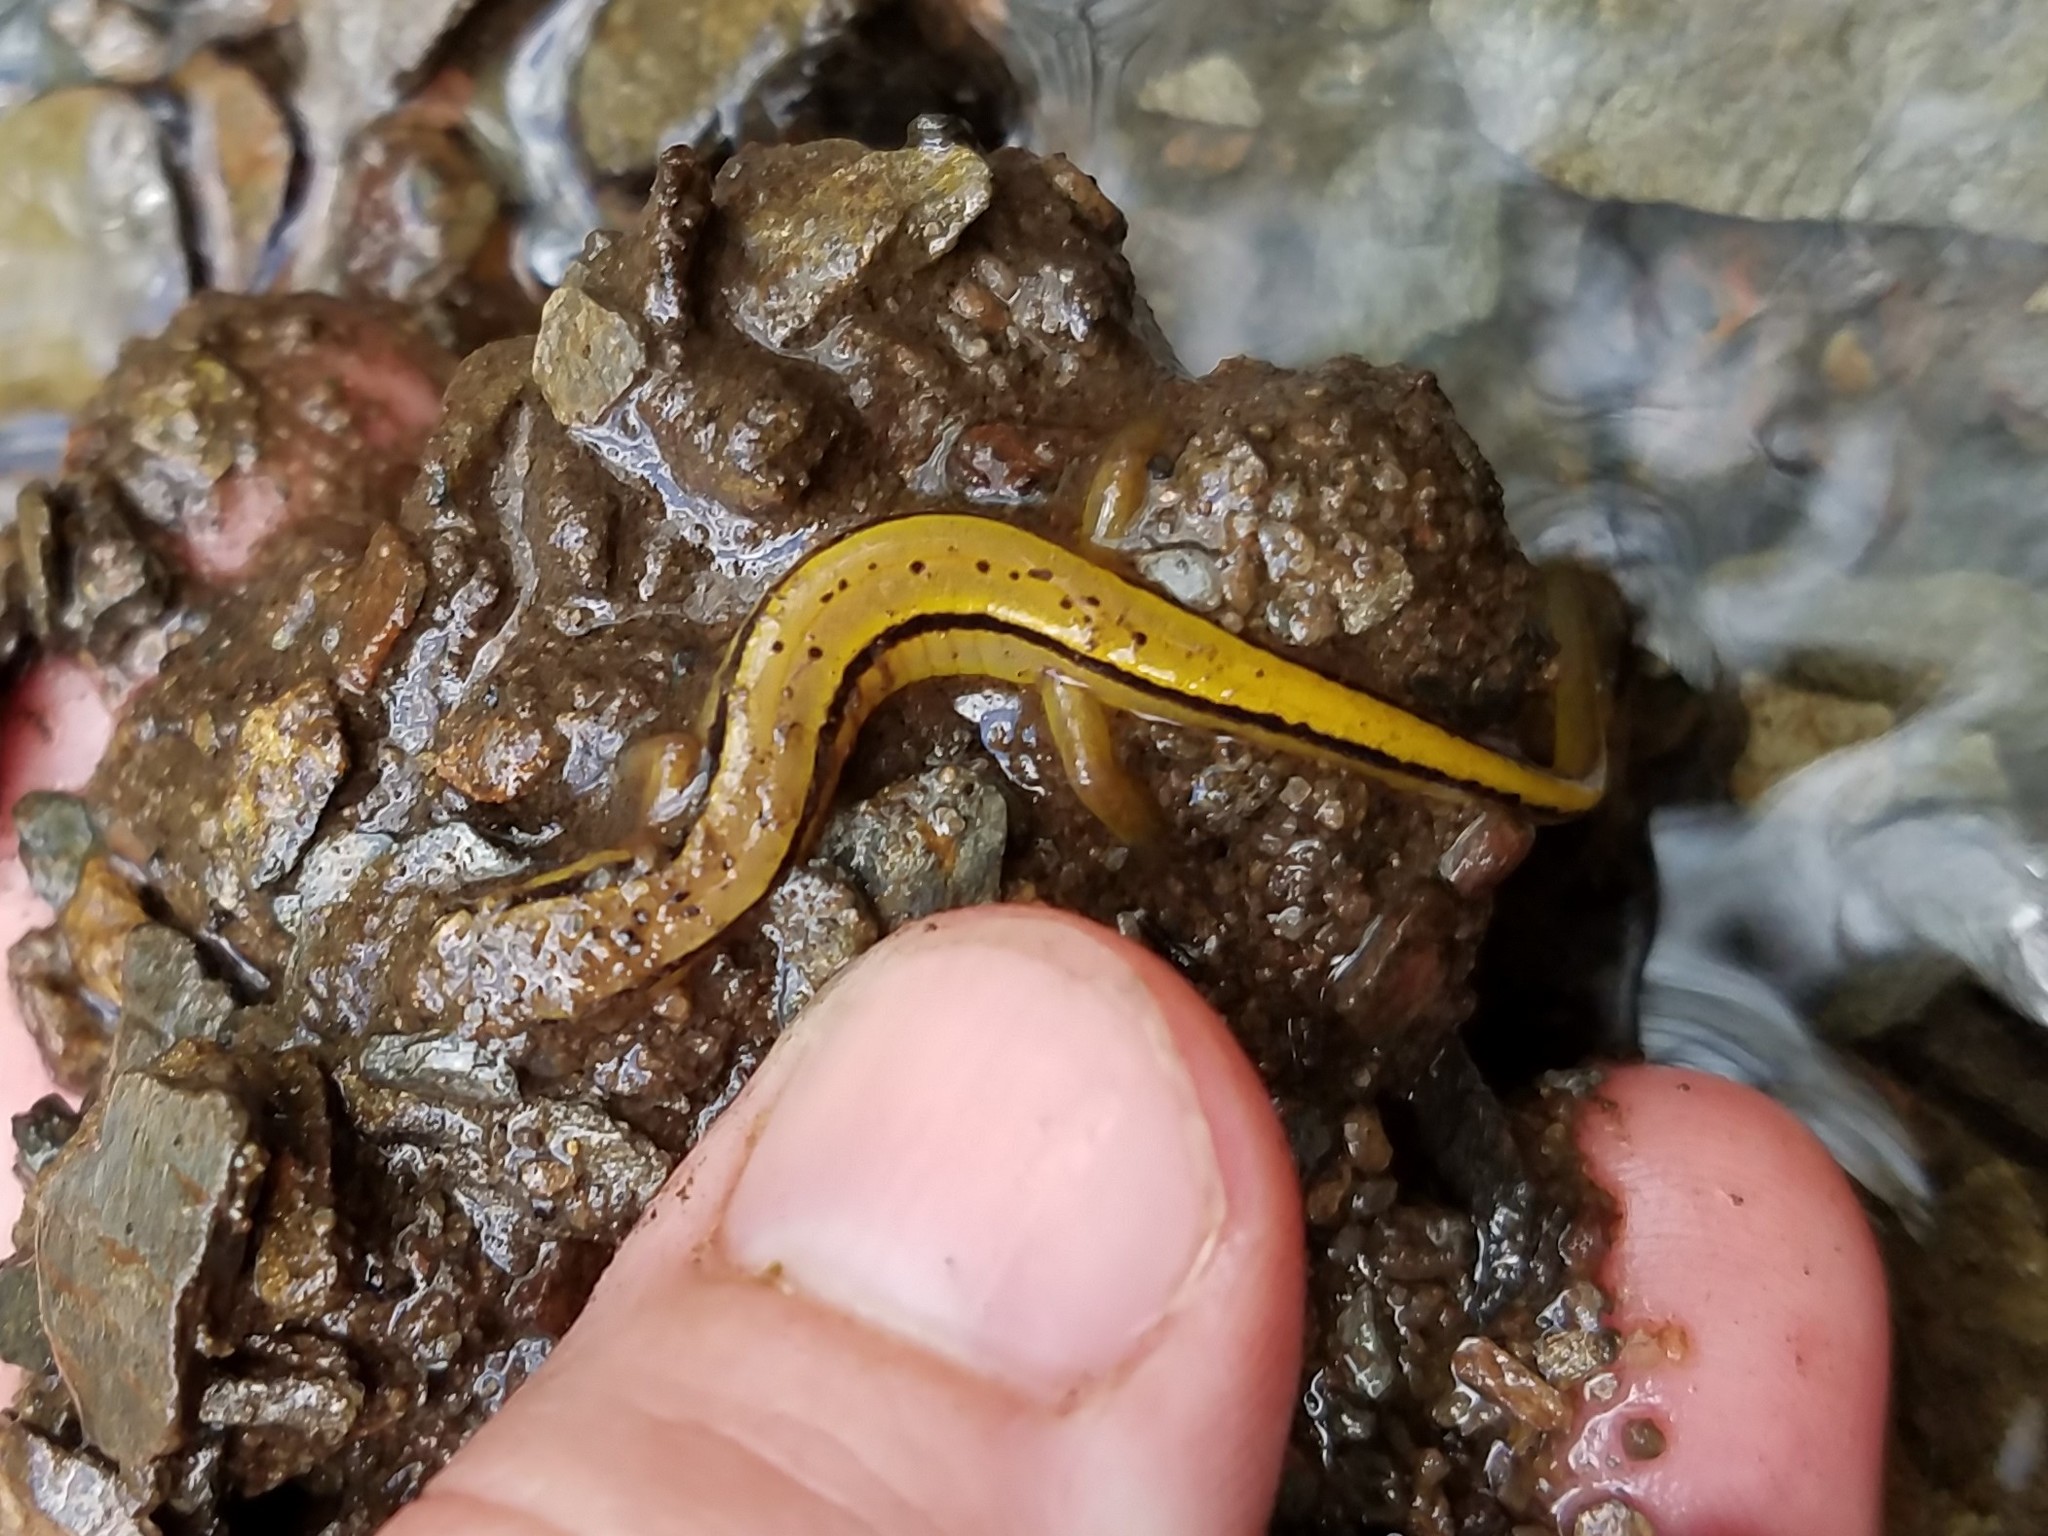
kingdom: Animalia
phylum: Chordata
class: Amphibia
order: Caudata
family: Plethodontidae
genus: Eurycea
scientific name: Eurycea wilderae
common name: Blue ridge two-lined salamander
